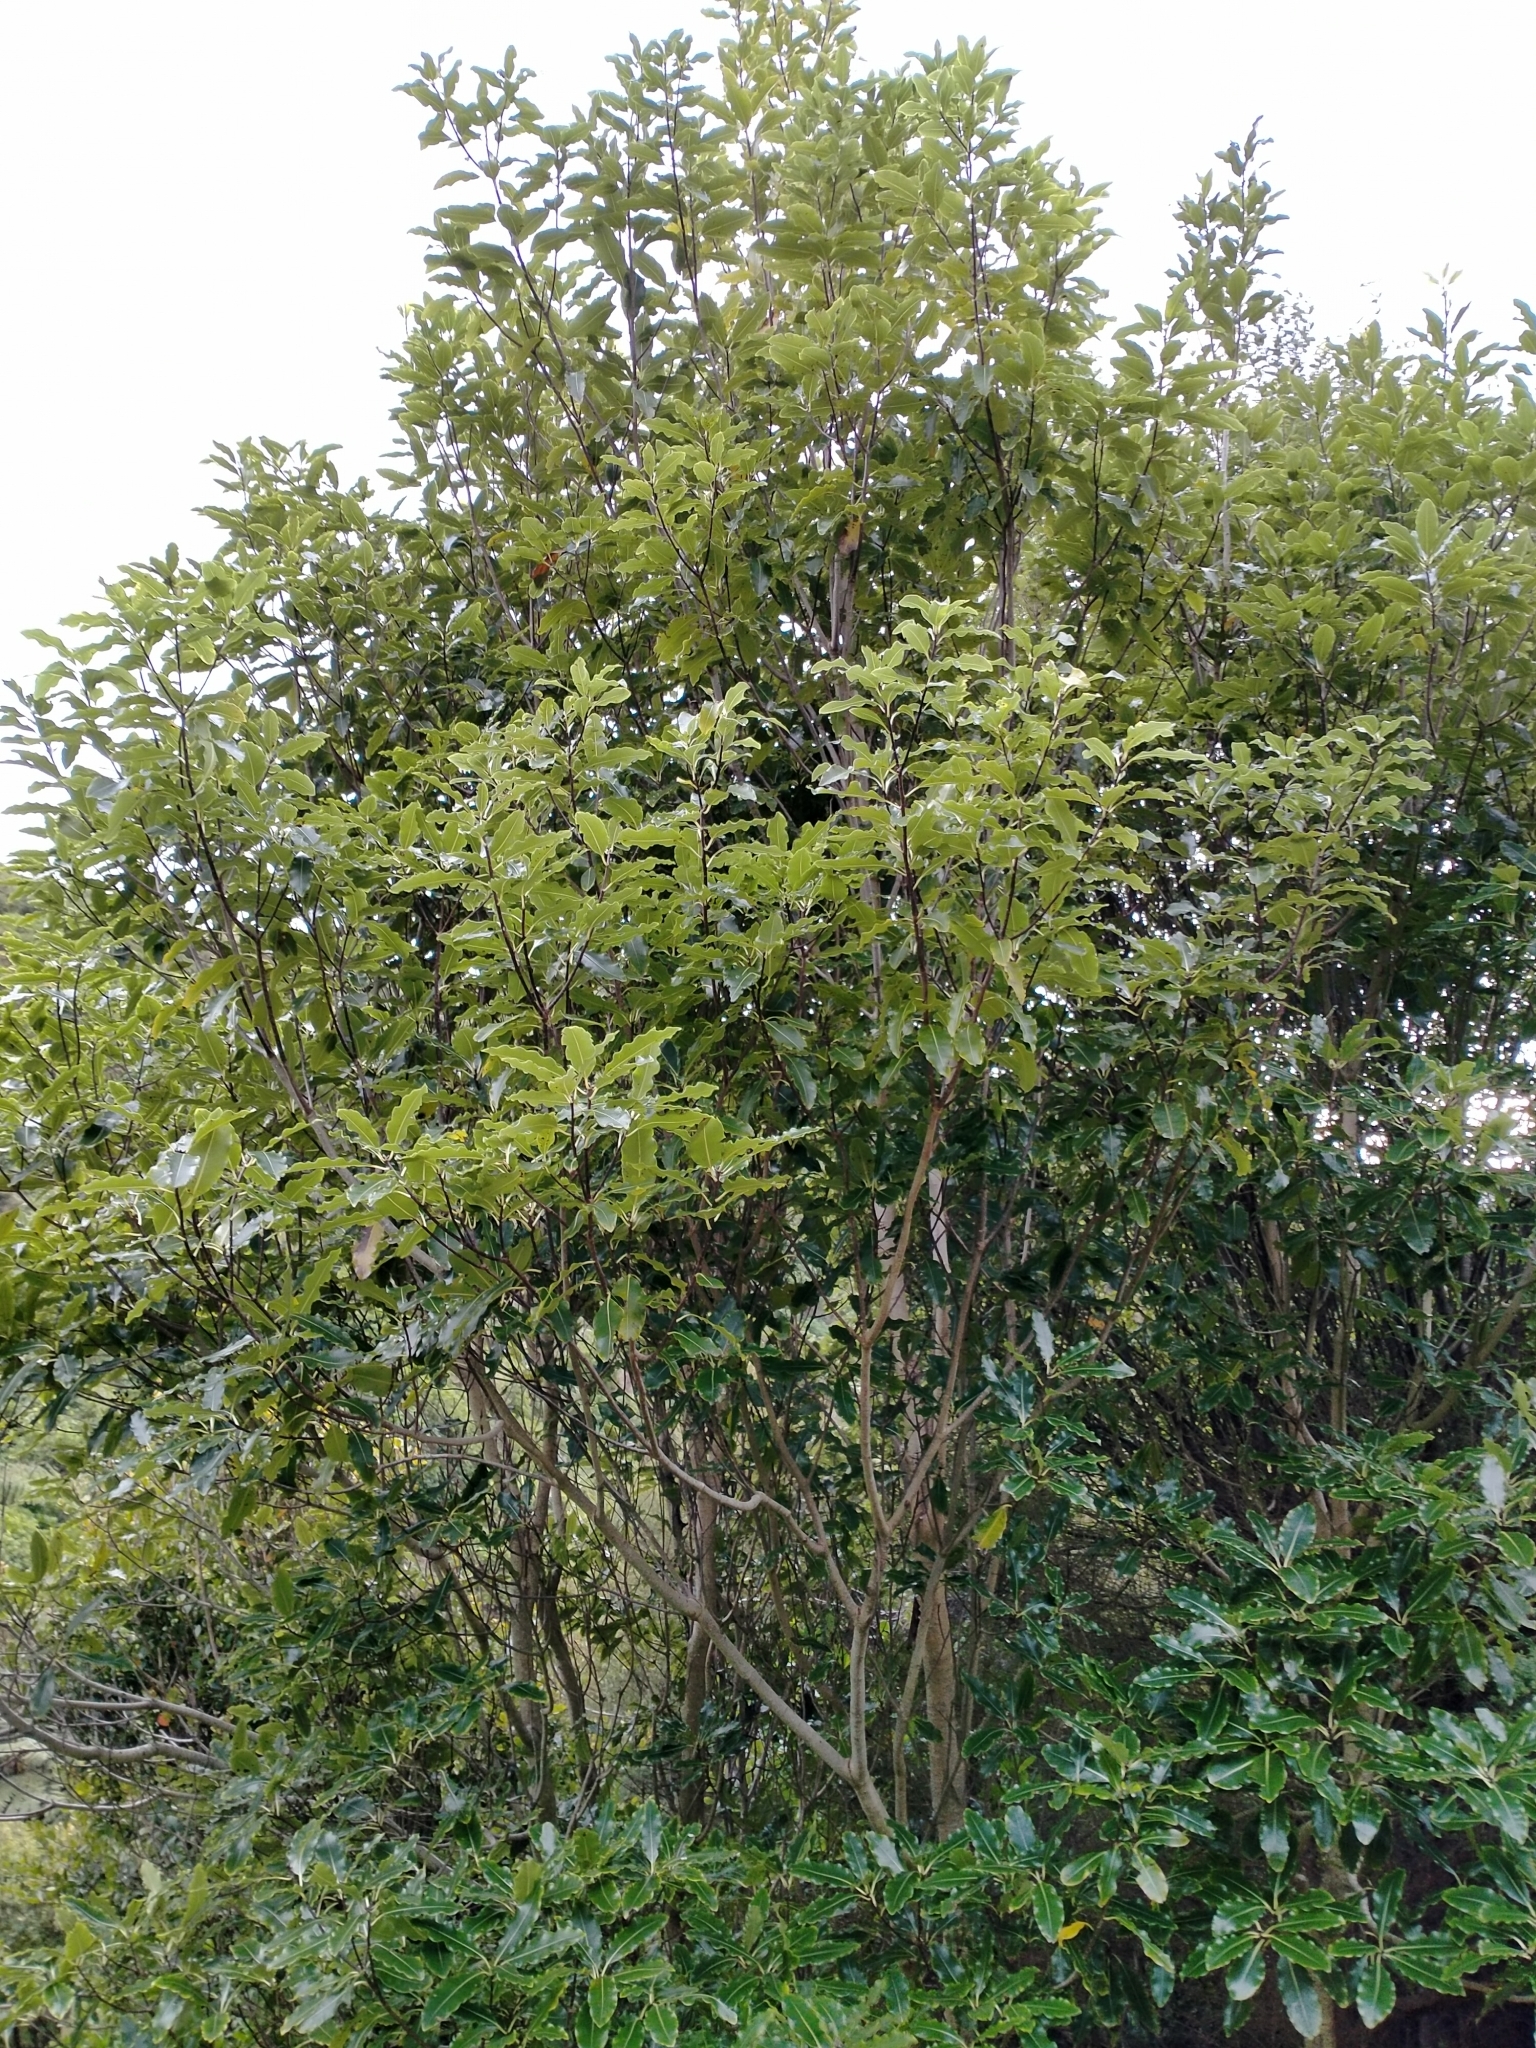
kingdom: Plantae
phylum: Tracheophyta
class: Magnoliopsida
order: Apiales
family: Pittosporaceae
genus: Pittosporum
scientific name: Pittosporum eugenioides
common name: Lemonwood
